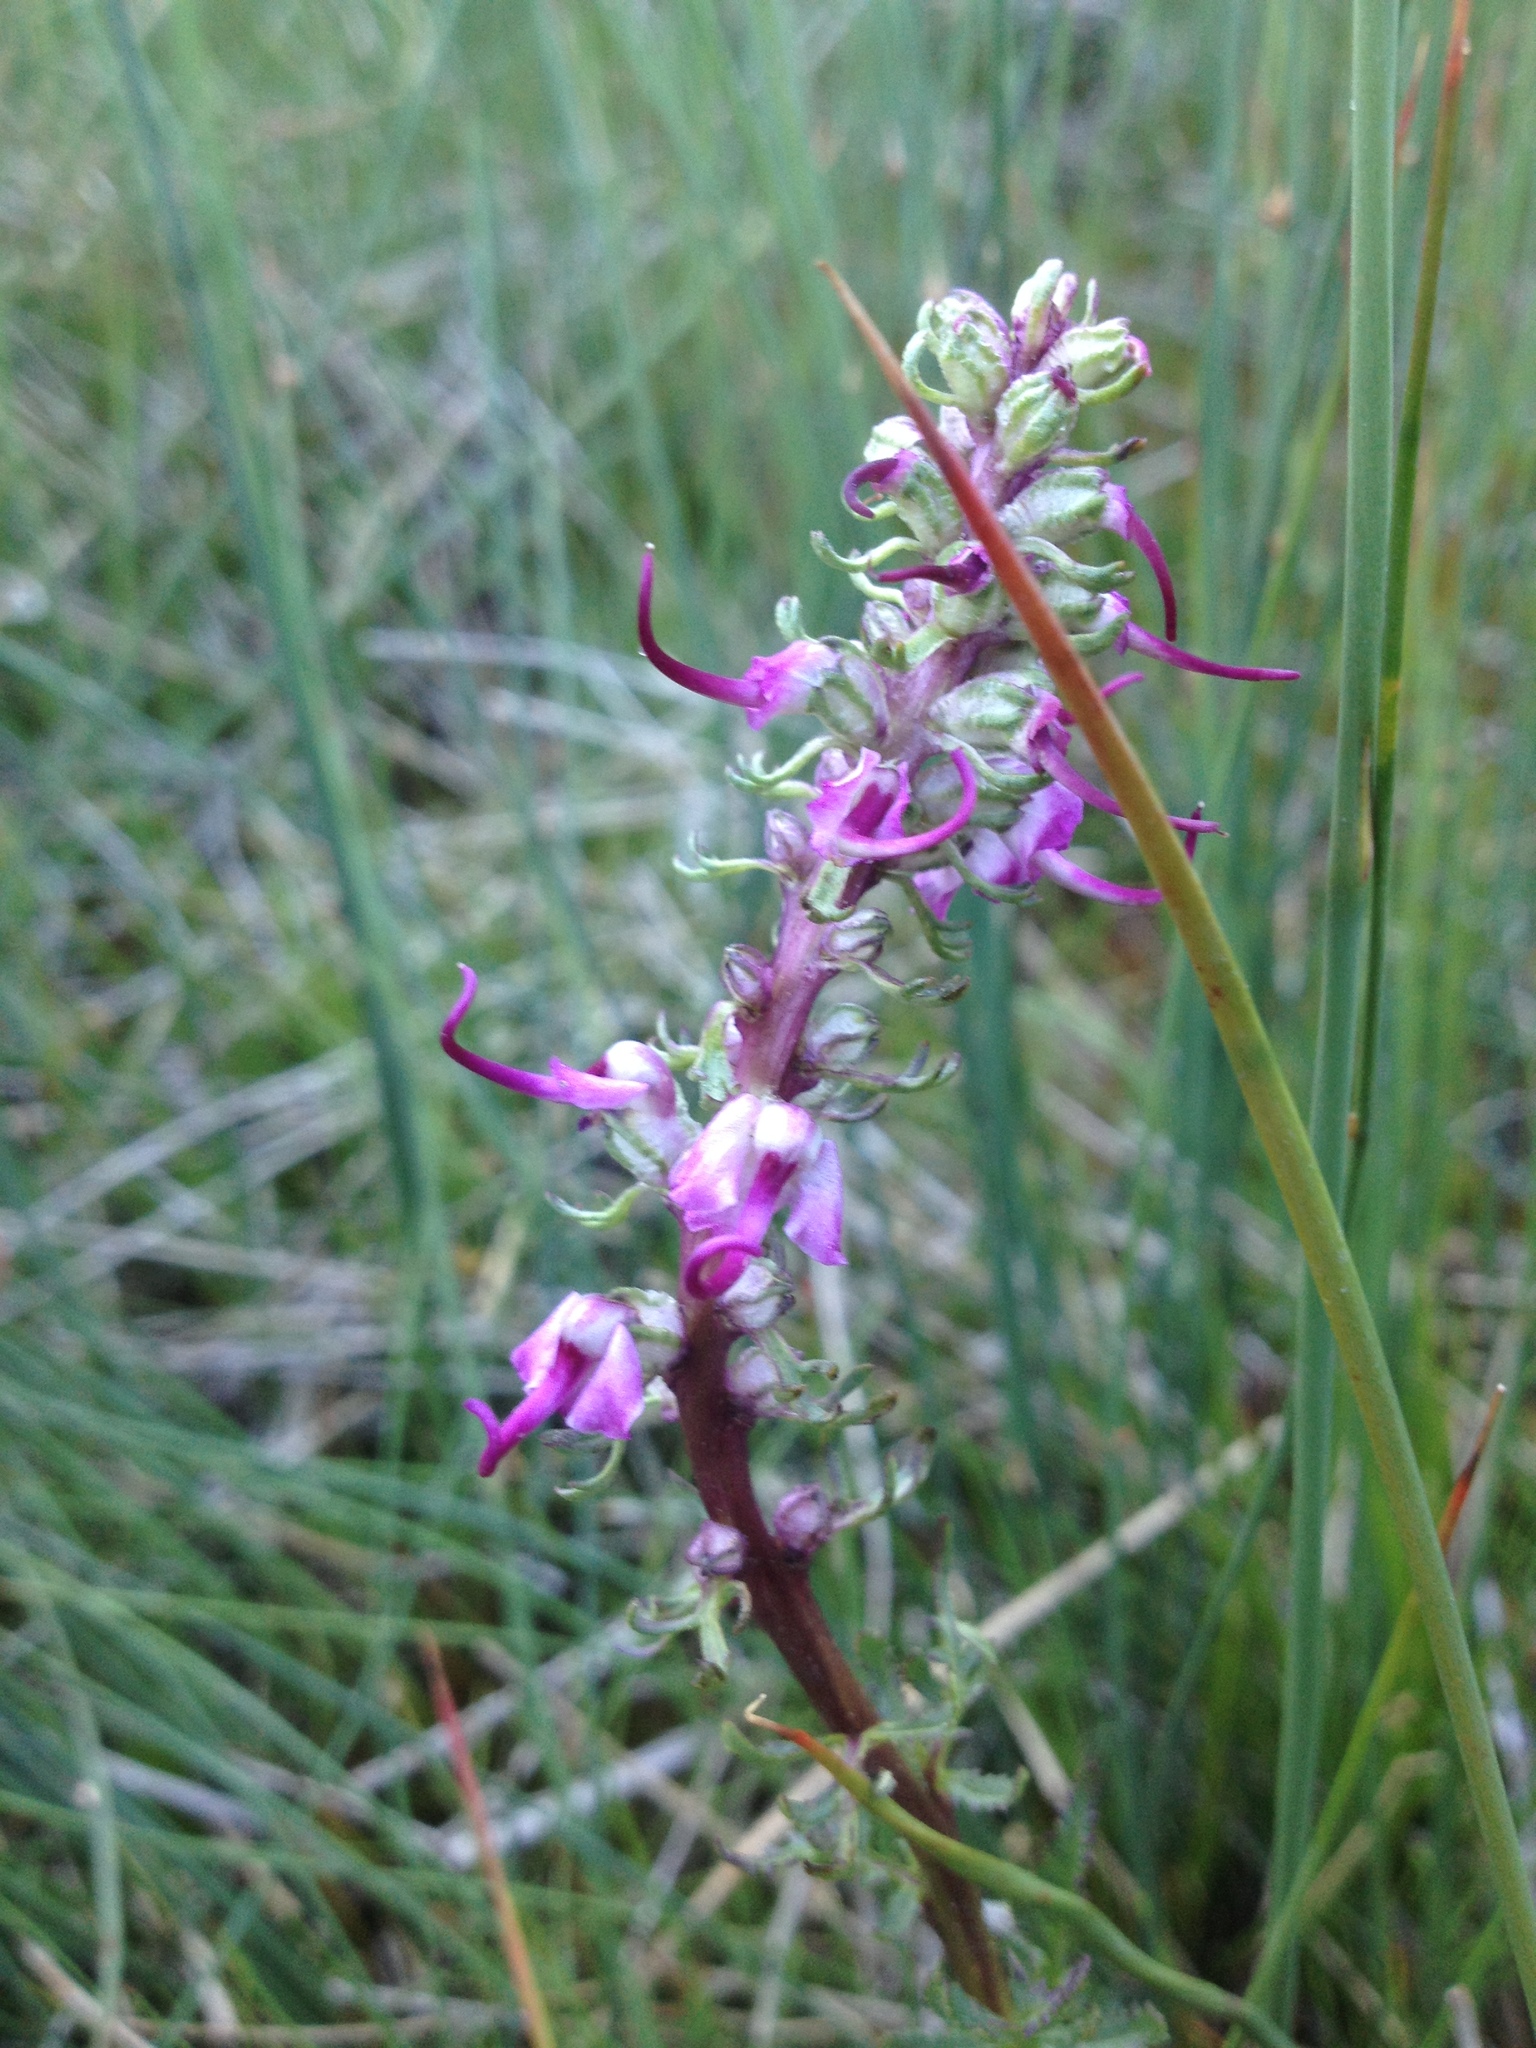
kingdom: Plantae
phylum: Tracheophyta
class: Magnoliopsida
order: Lamiales
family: Orobanchaceae
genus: Pedicularis
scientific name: Pedicularis groenlandica
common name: Elephant's-head
